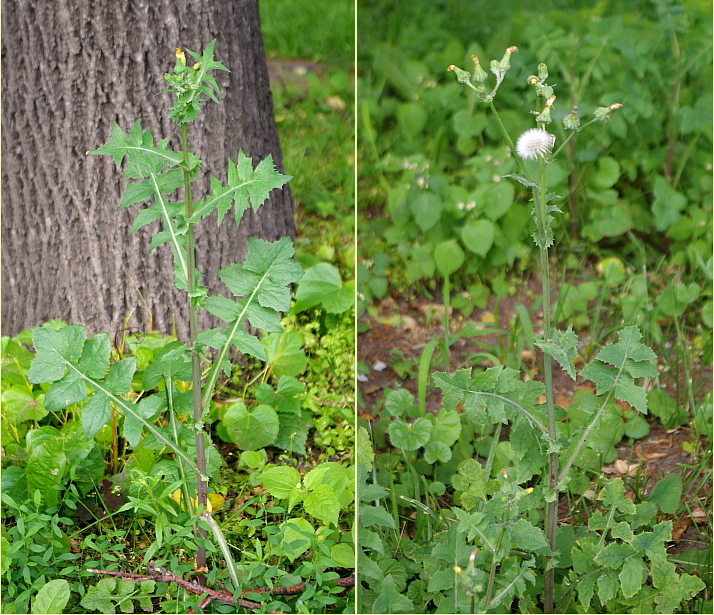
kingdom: Plantae
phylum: Tracheophyta
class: Magnoliopsida
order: Asterales
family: Asteraceae
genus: Sonchus
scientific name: Sonchus oleraceus
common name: Common sowthistle
